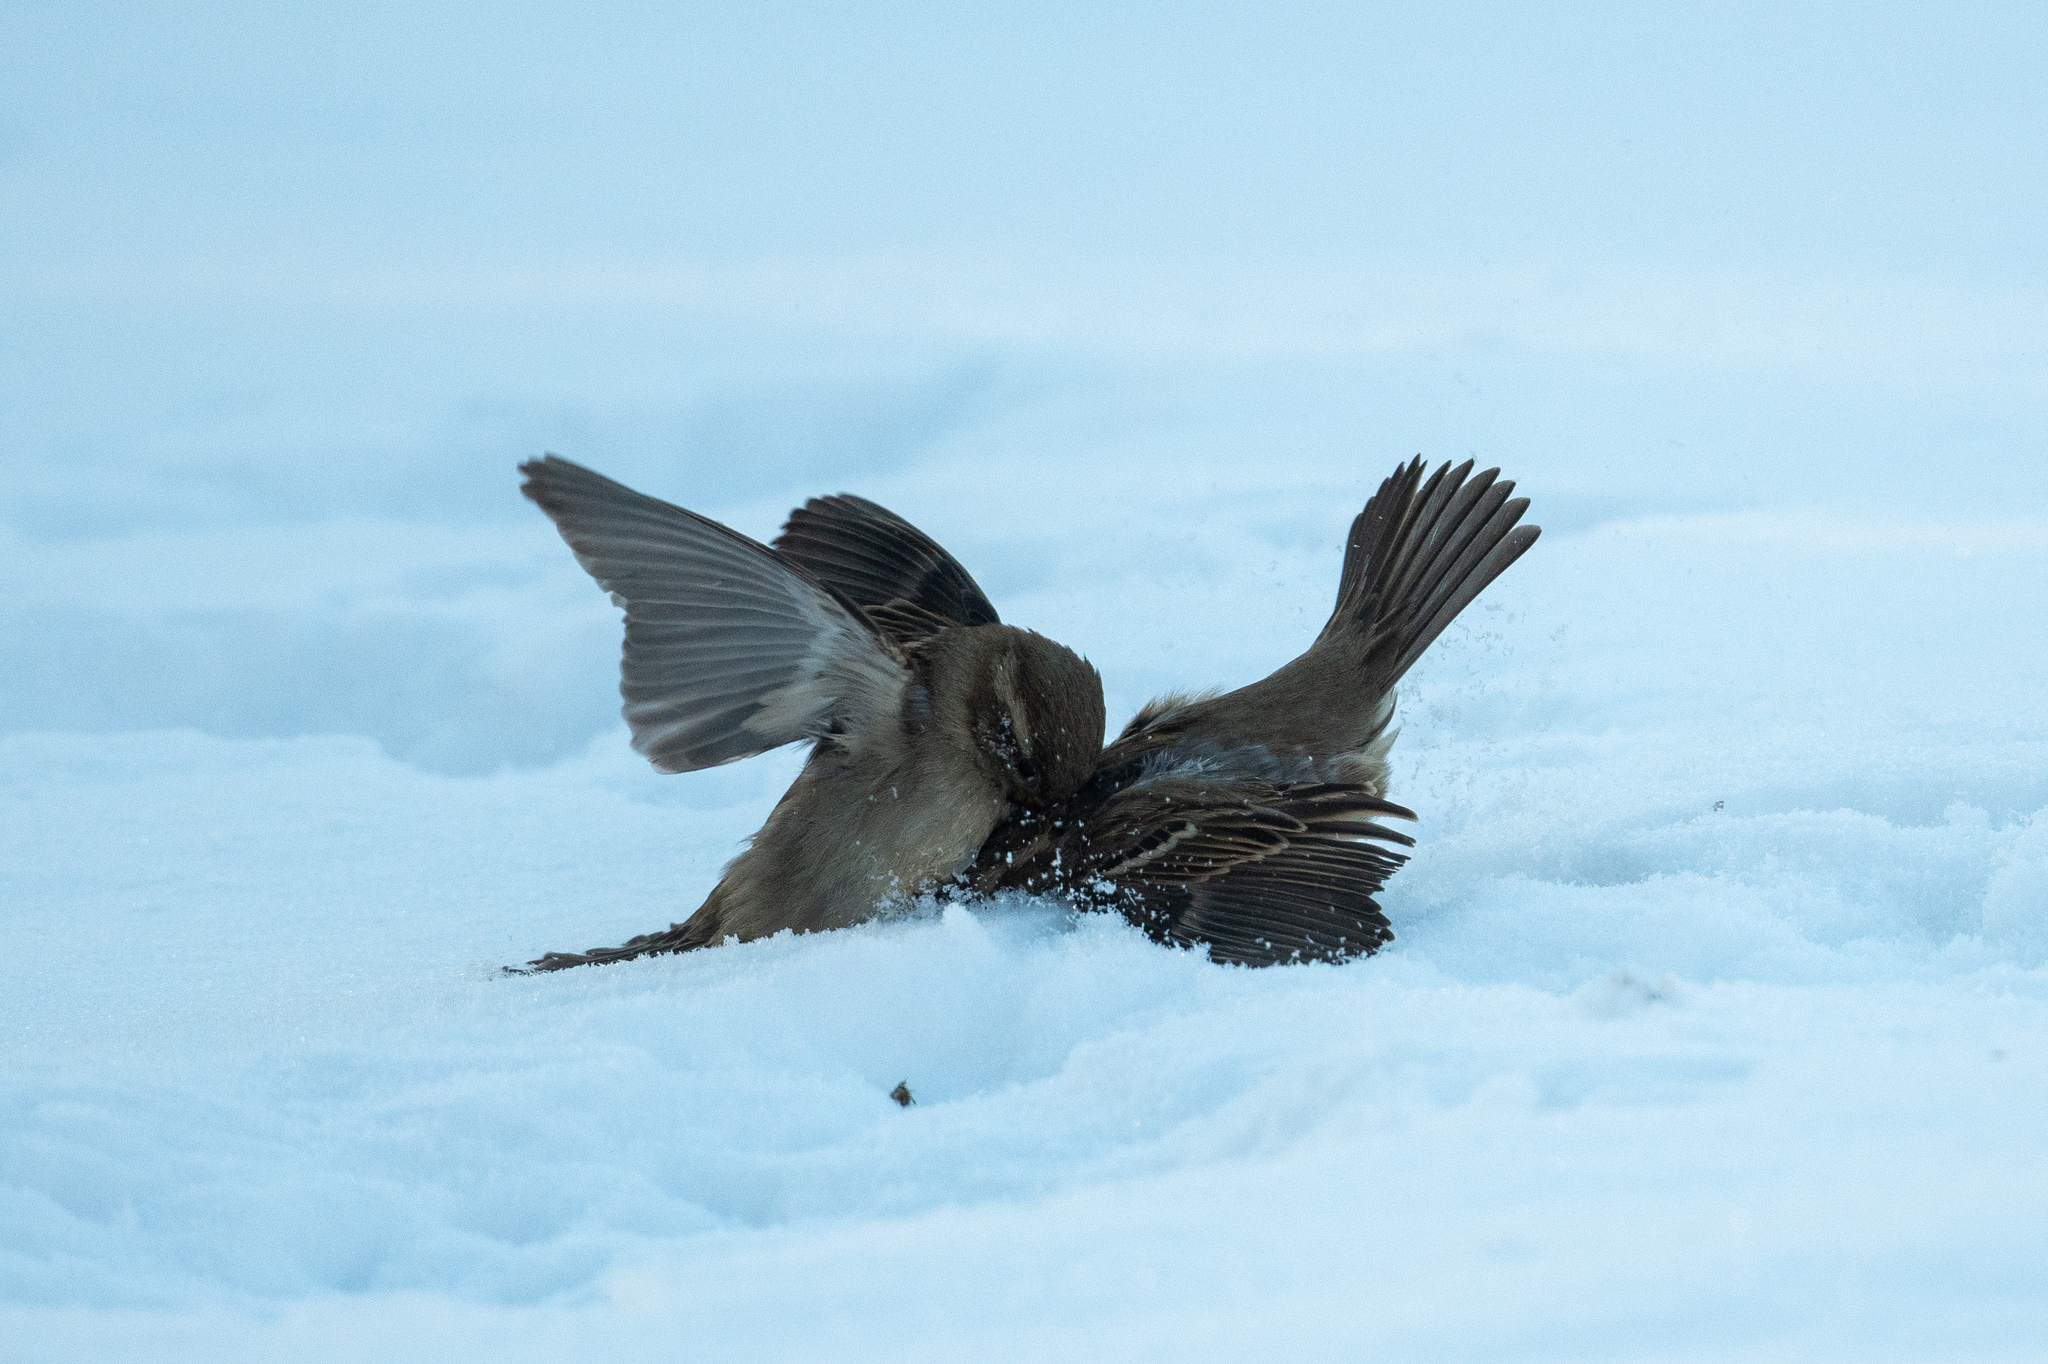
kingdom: Animalia
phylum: Chordata
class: Aves
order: Passeriformes
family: Passeridae
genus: Passer
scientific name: Passer domesticus
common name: House sparrow
